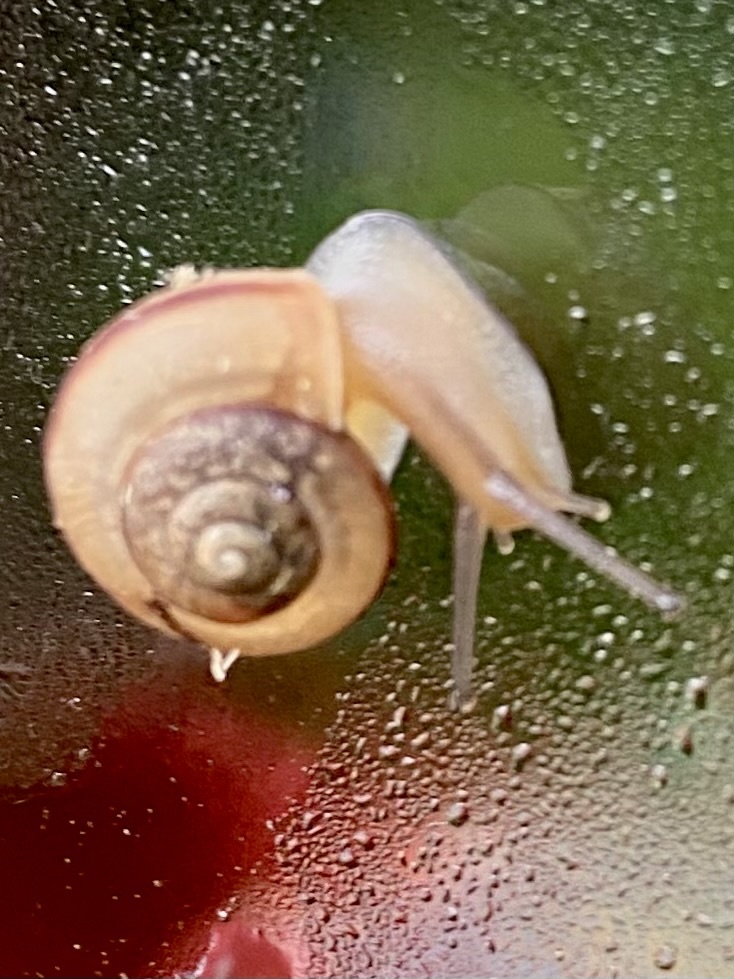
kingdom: Animalia
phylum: Mollusca
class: Gastropoda
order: Stylommatophora
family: Camaenidae
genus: Bradybaena
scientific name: Bradybaena similaris
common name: Asian trampsnail
